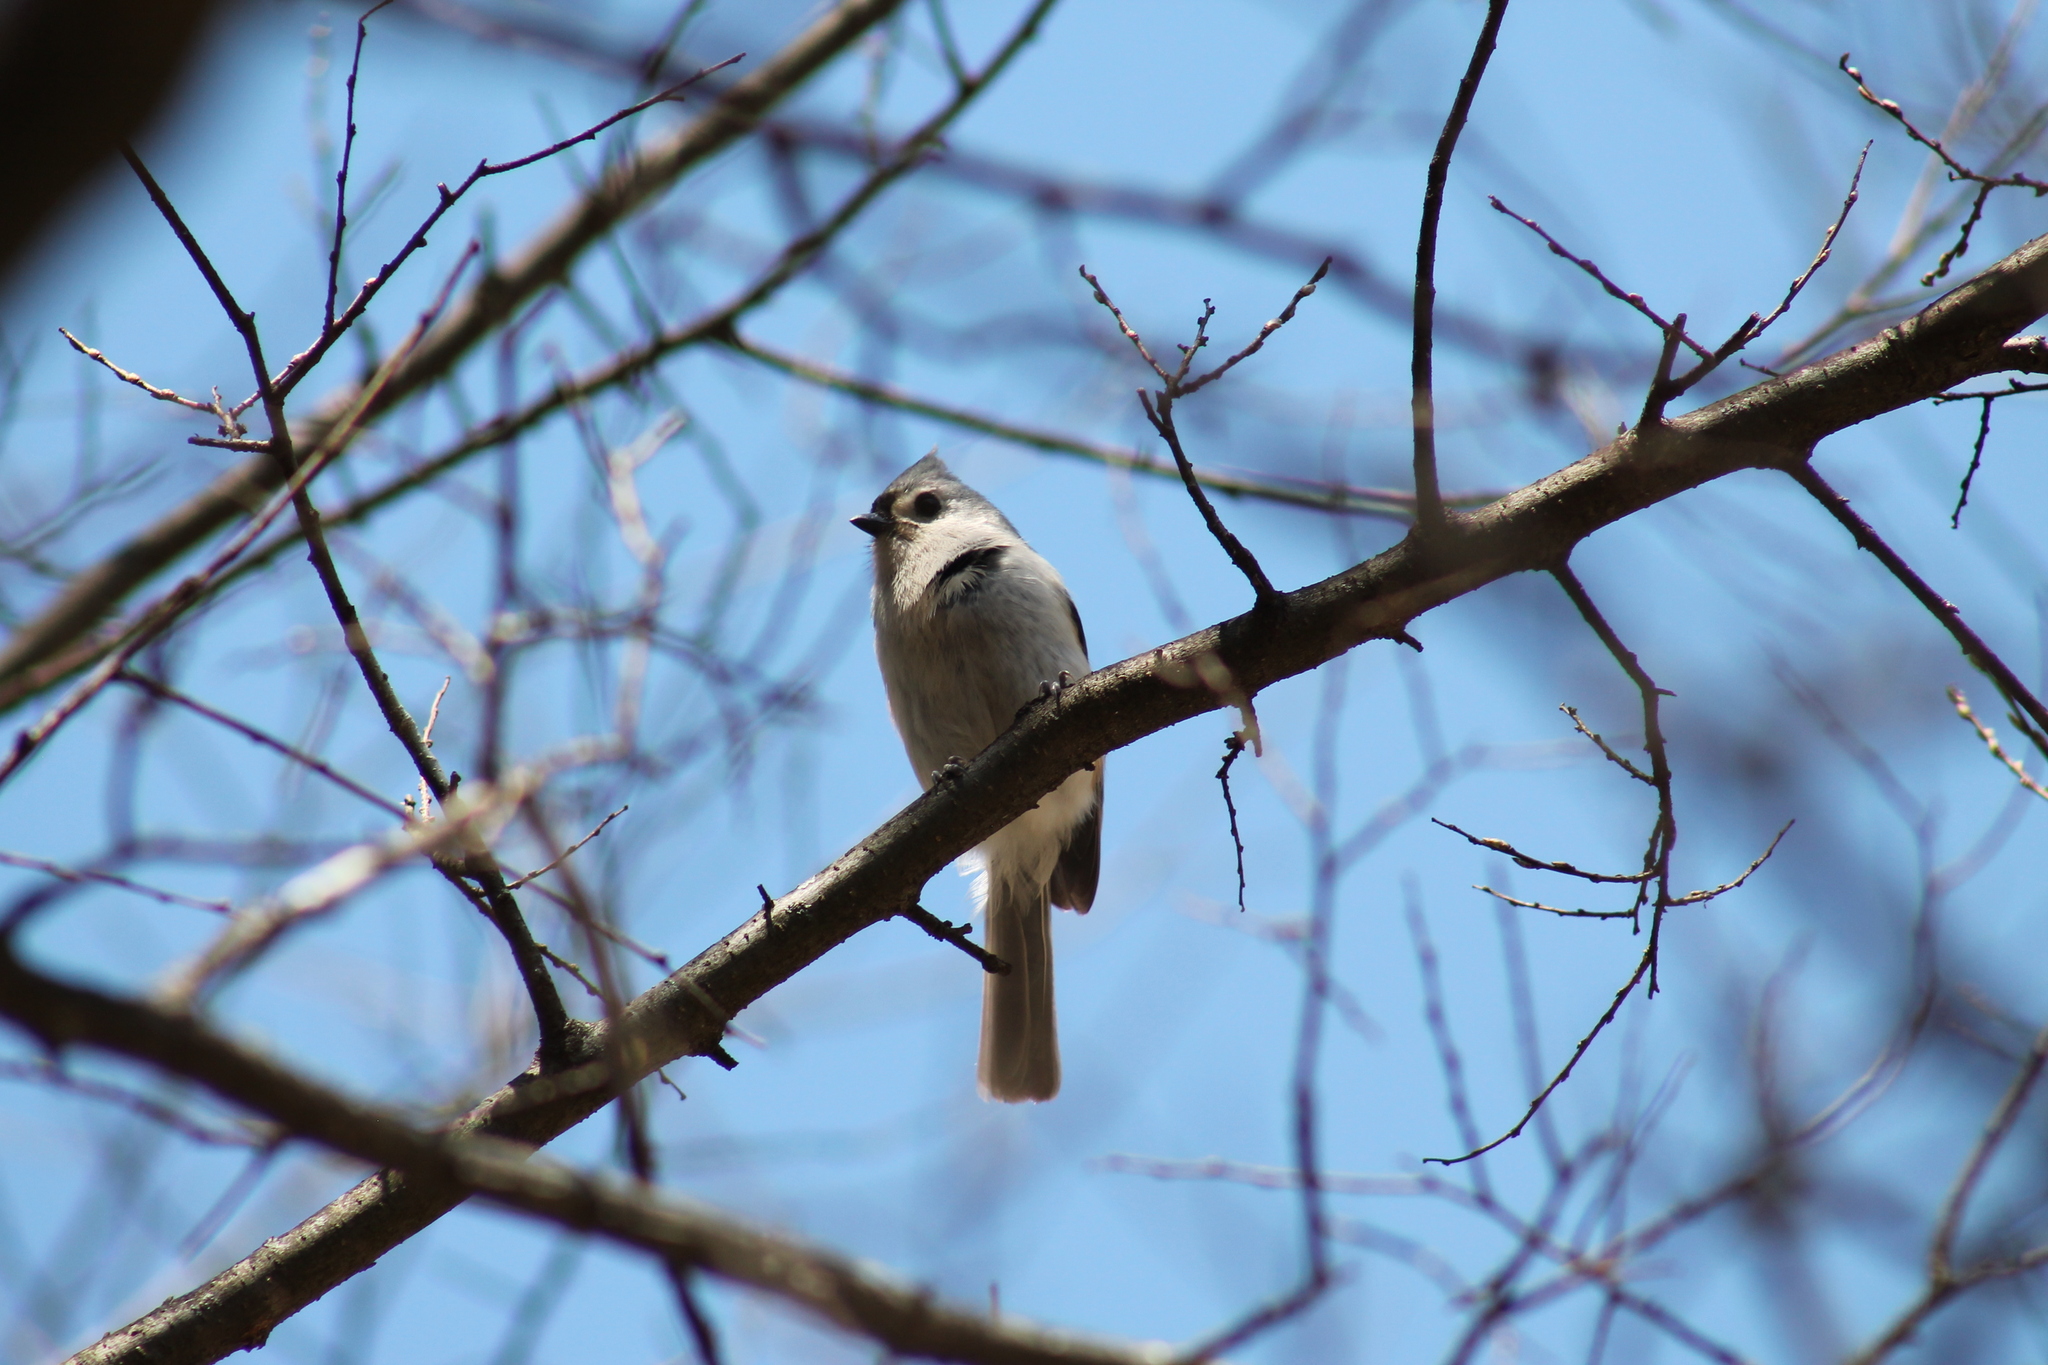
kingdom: Animalia
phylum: Chordata
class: Aves
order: Passeriformes
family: Paridae
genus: Baeolophus
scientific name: Baeolophus bicolor
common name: Tufted titmouse
